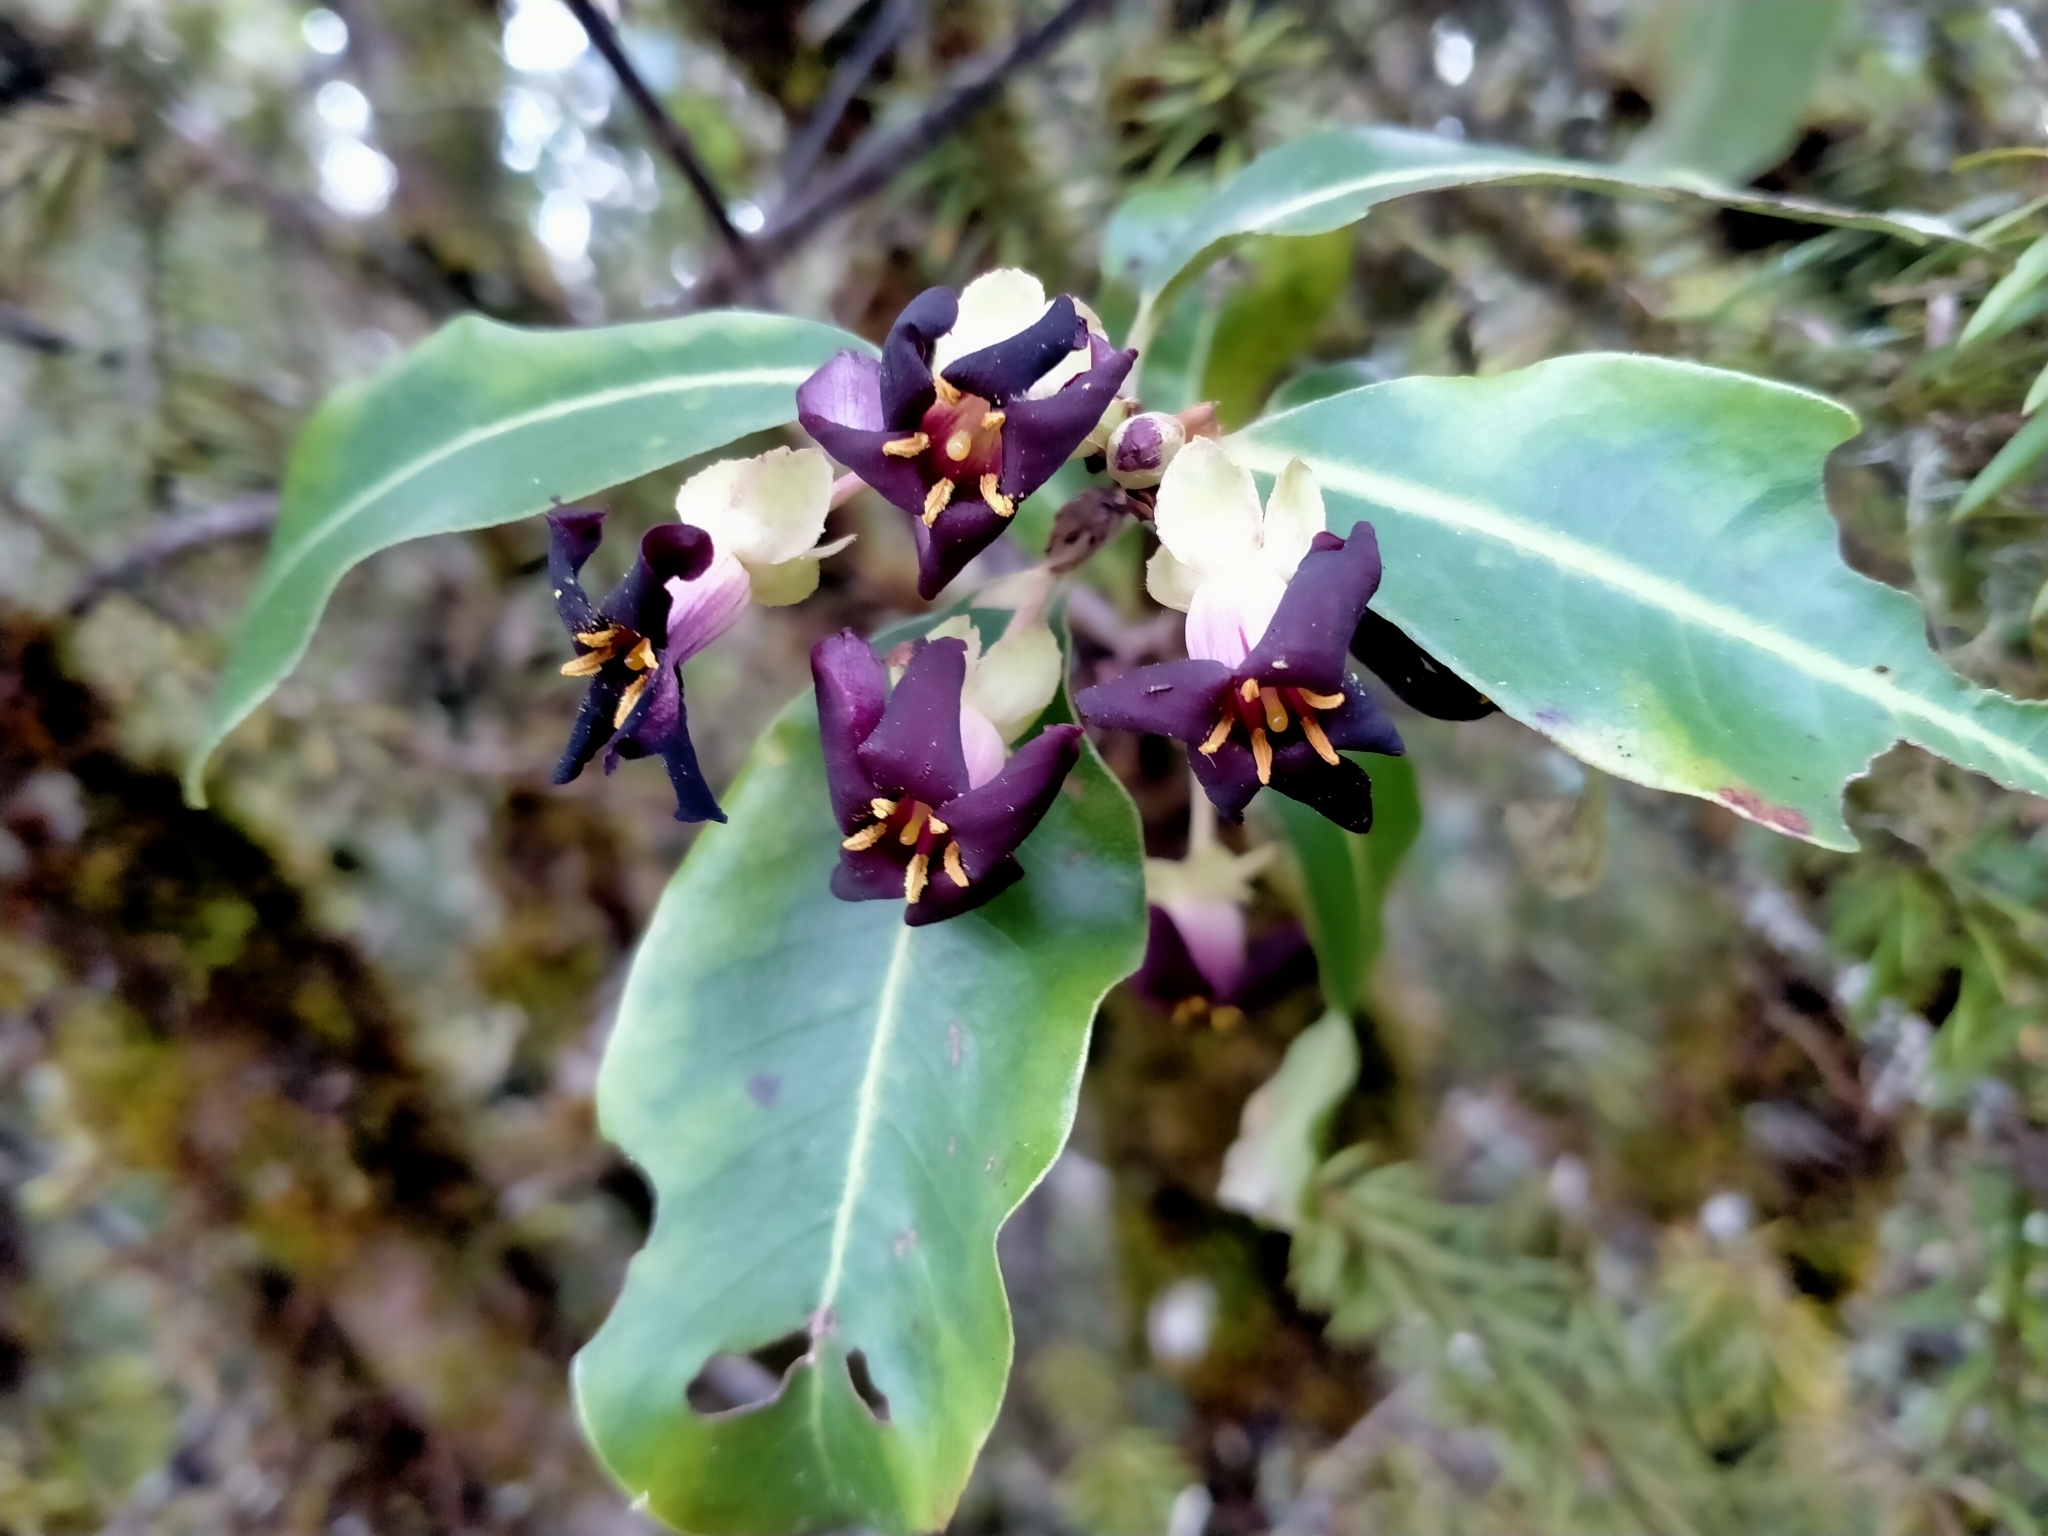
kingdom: Plantae
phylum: Tracheophyta
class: Magnoliopsida
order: Apiales
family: Pittosporaceae
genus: Pittosporum
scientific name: Pittosporum colensoi
